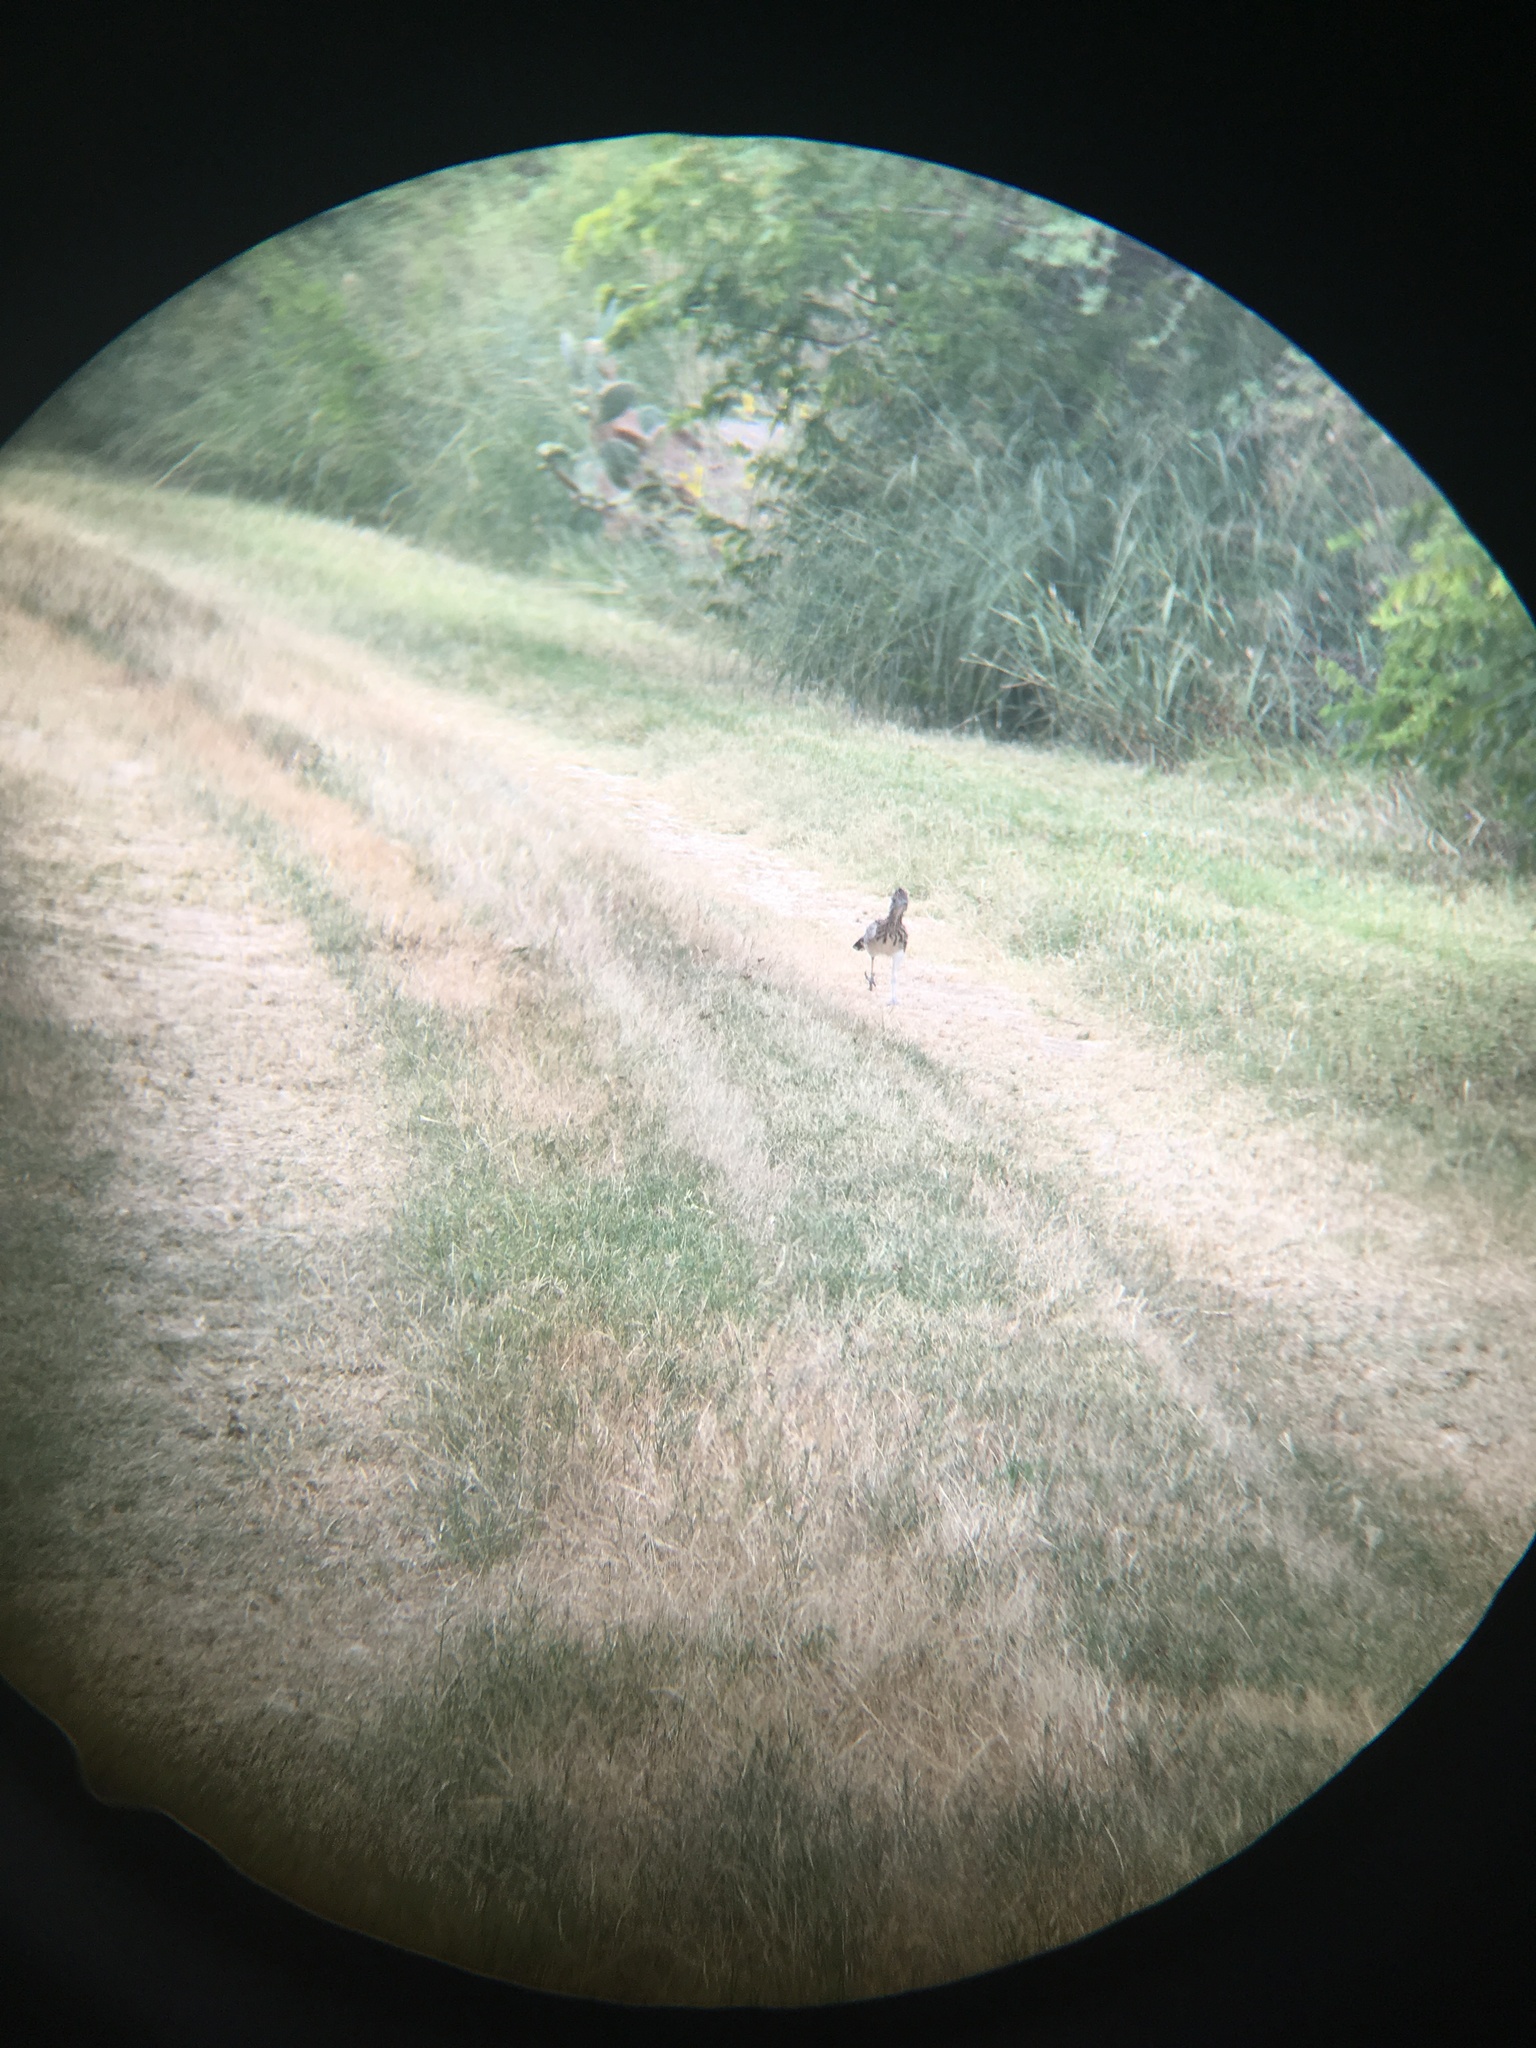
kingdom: Animalia
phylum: Chordata
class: Aves
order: Cuculiformes
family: Cuculidae
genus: Geococcyx
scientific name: Geococcyx californianus
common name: Greater roadrunner
